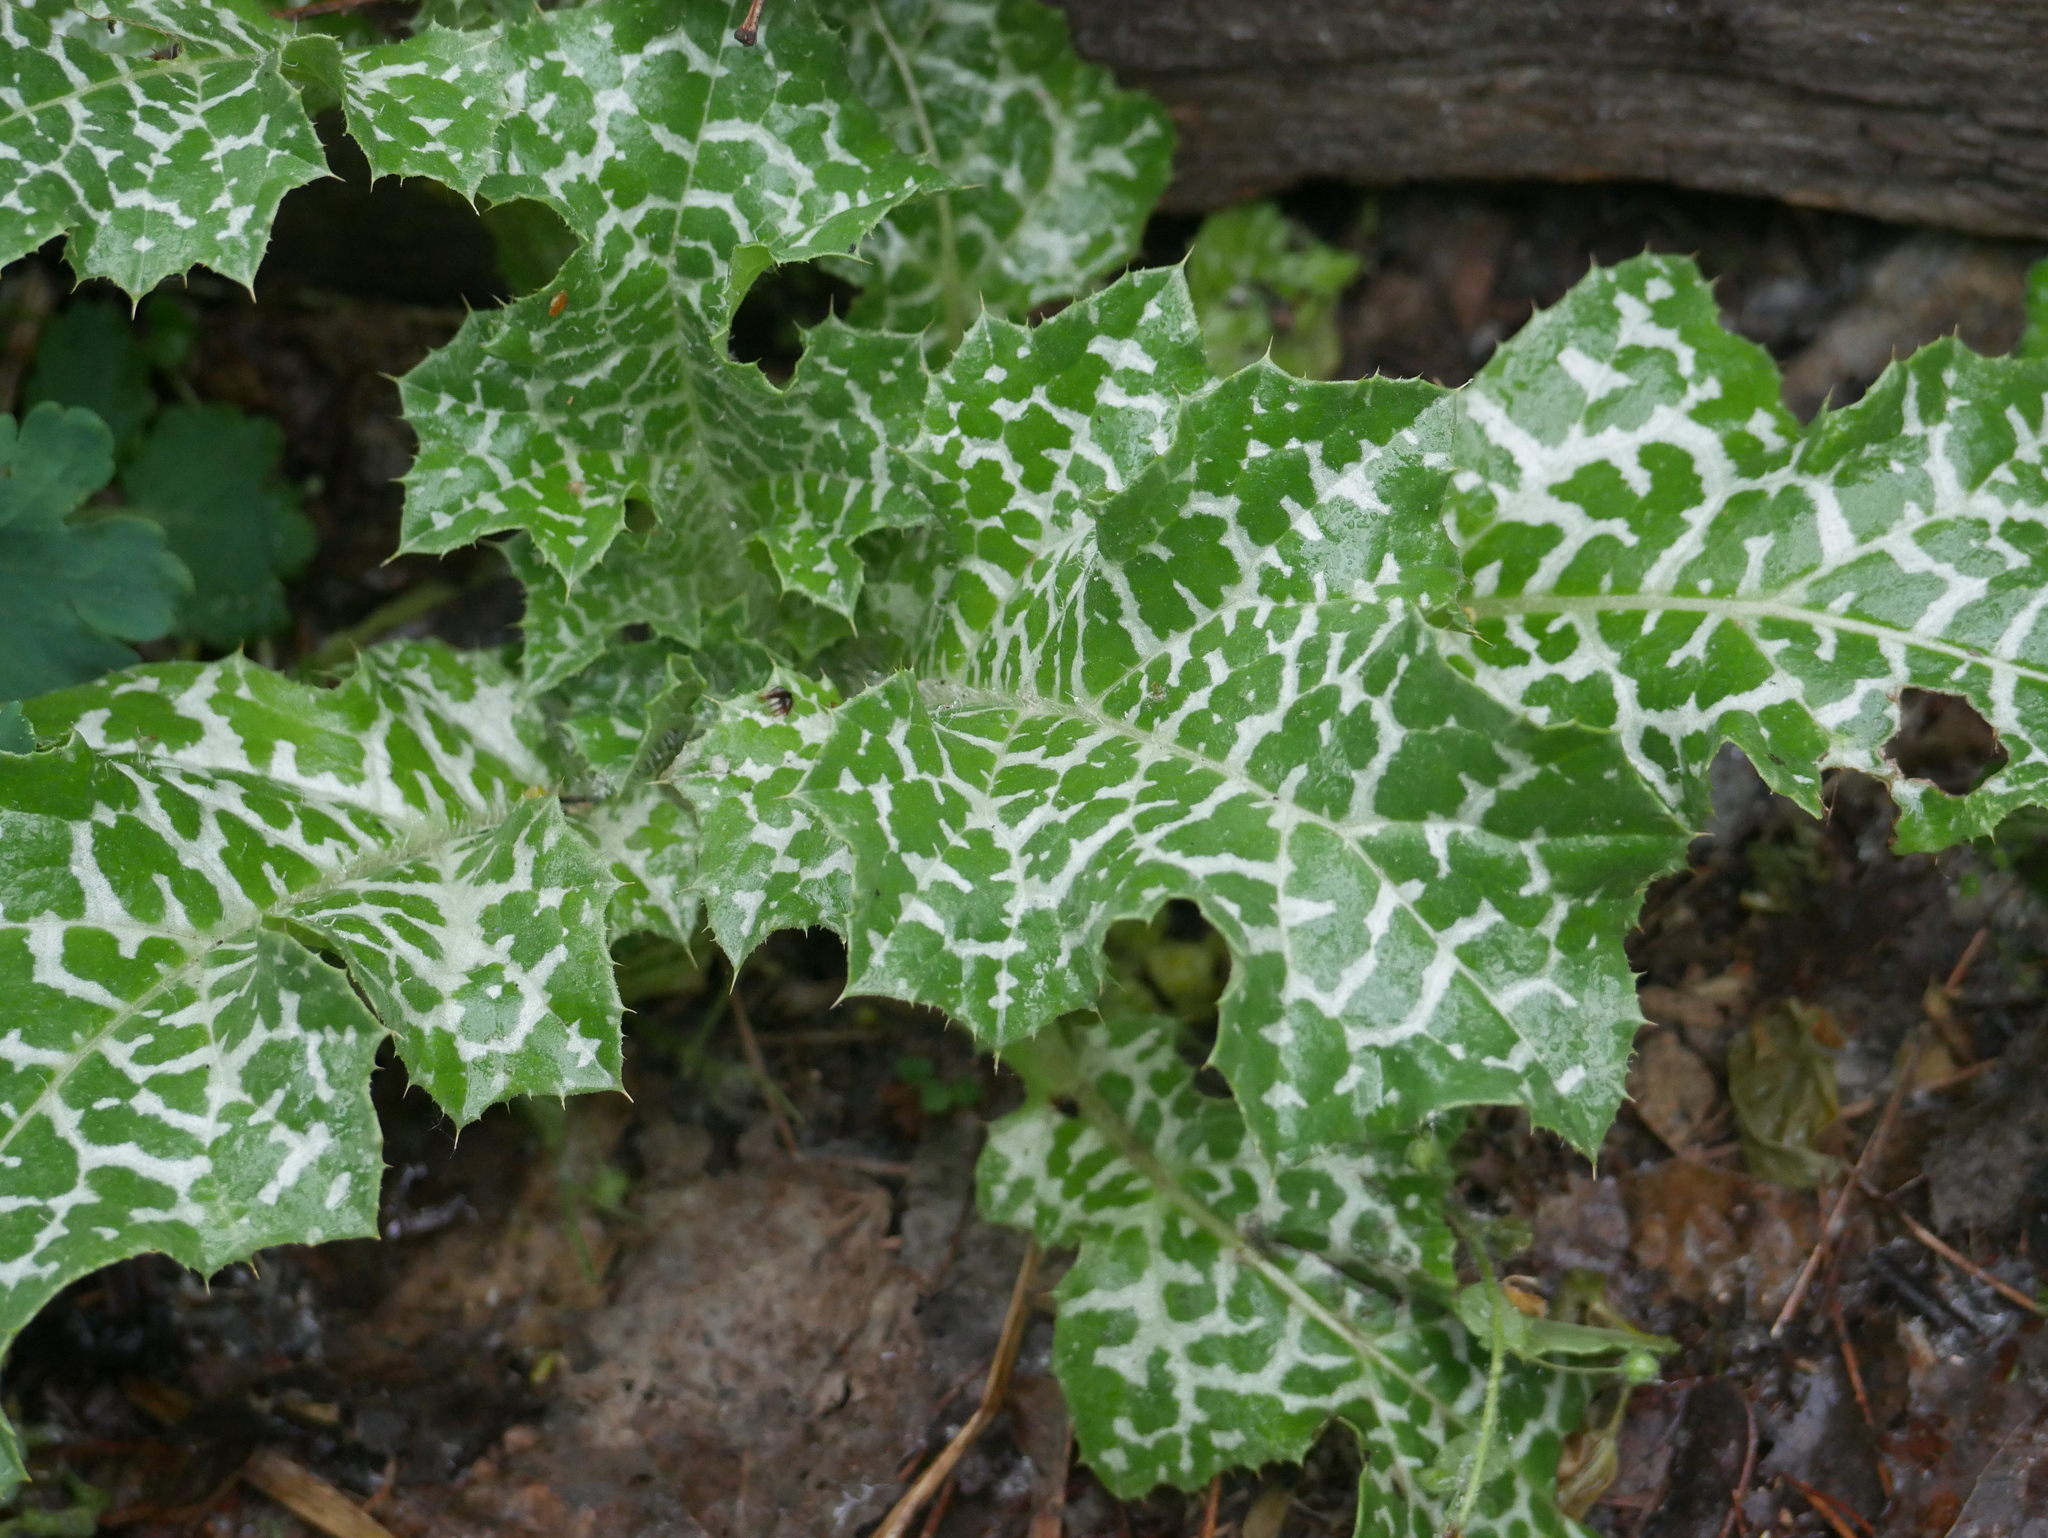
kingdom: Plantae
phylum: Tracheophyta
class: Magnoliopsida
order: Asterales
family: Asteraceae
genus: Silybum
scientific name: Silybum marianum
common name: Milk thistle
